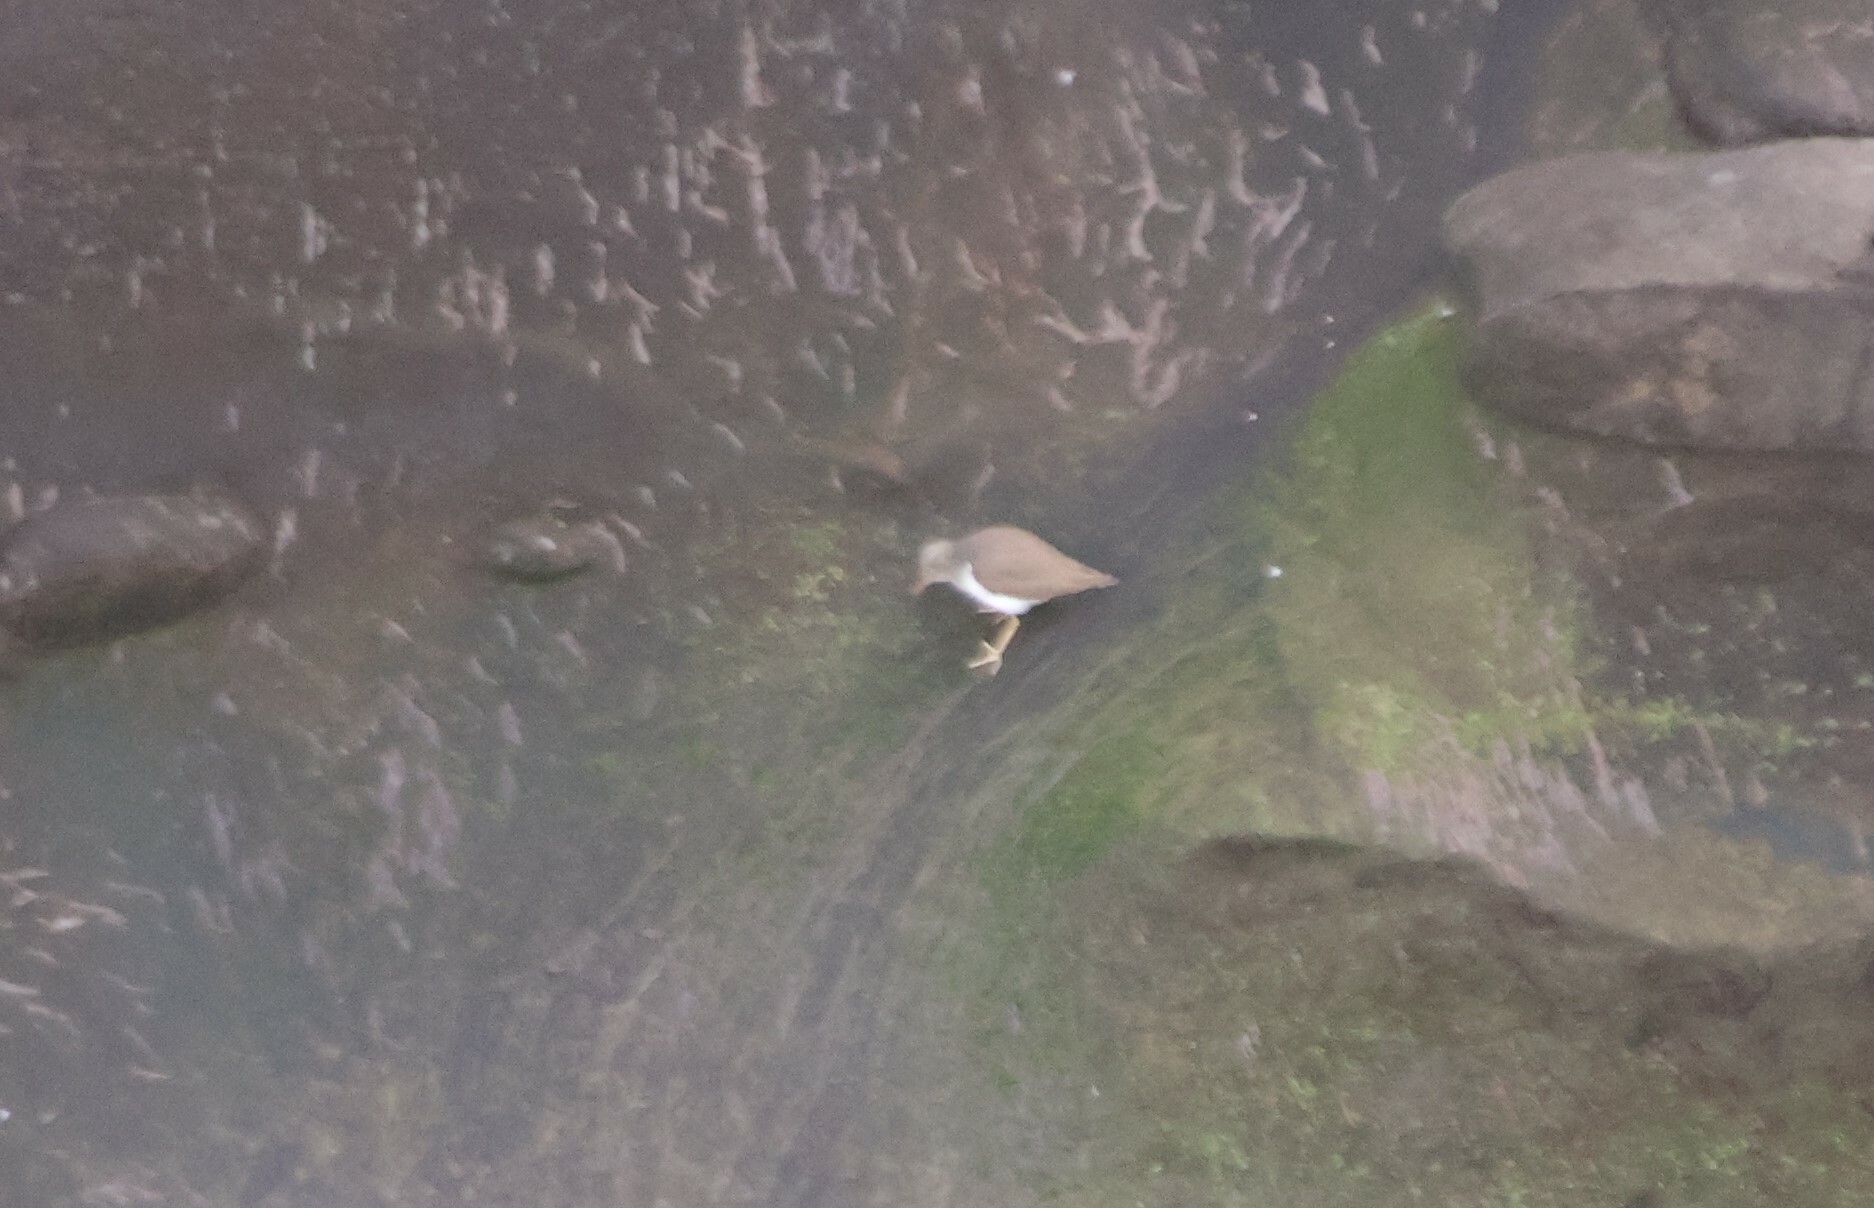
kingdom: Animalia
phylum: Chordata
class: Aves
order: Charadriiformes
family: Scolopacidae
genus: Actitis
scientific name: Actitis macularius
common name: Spotted sandpiper
